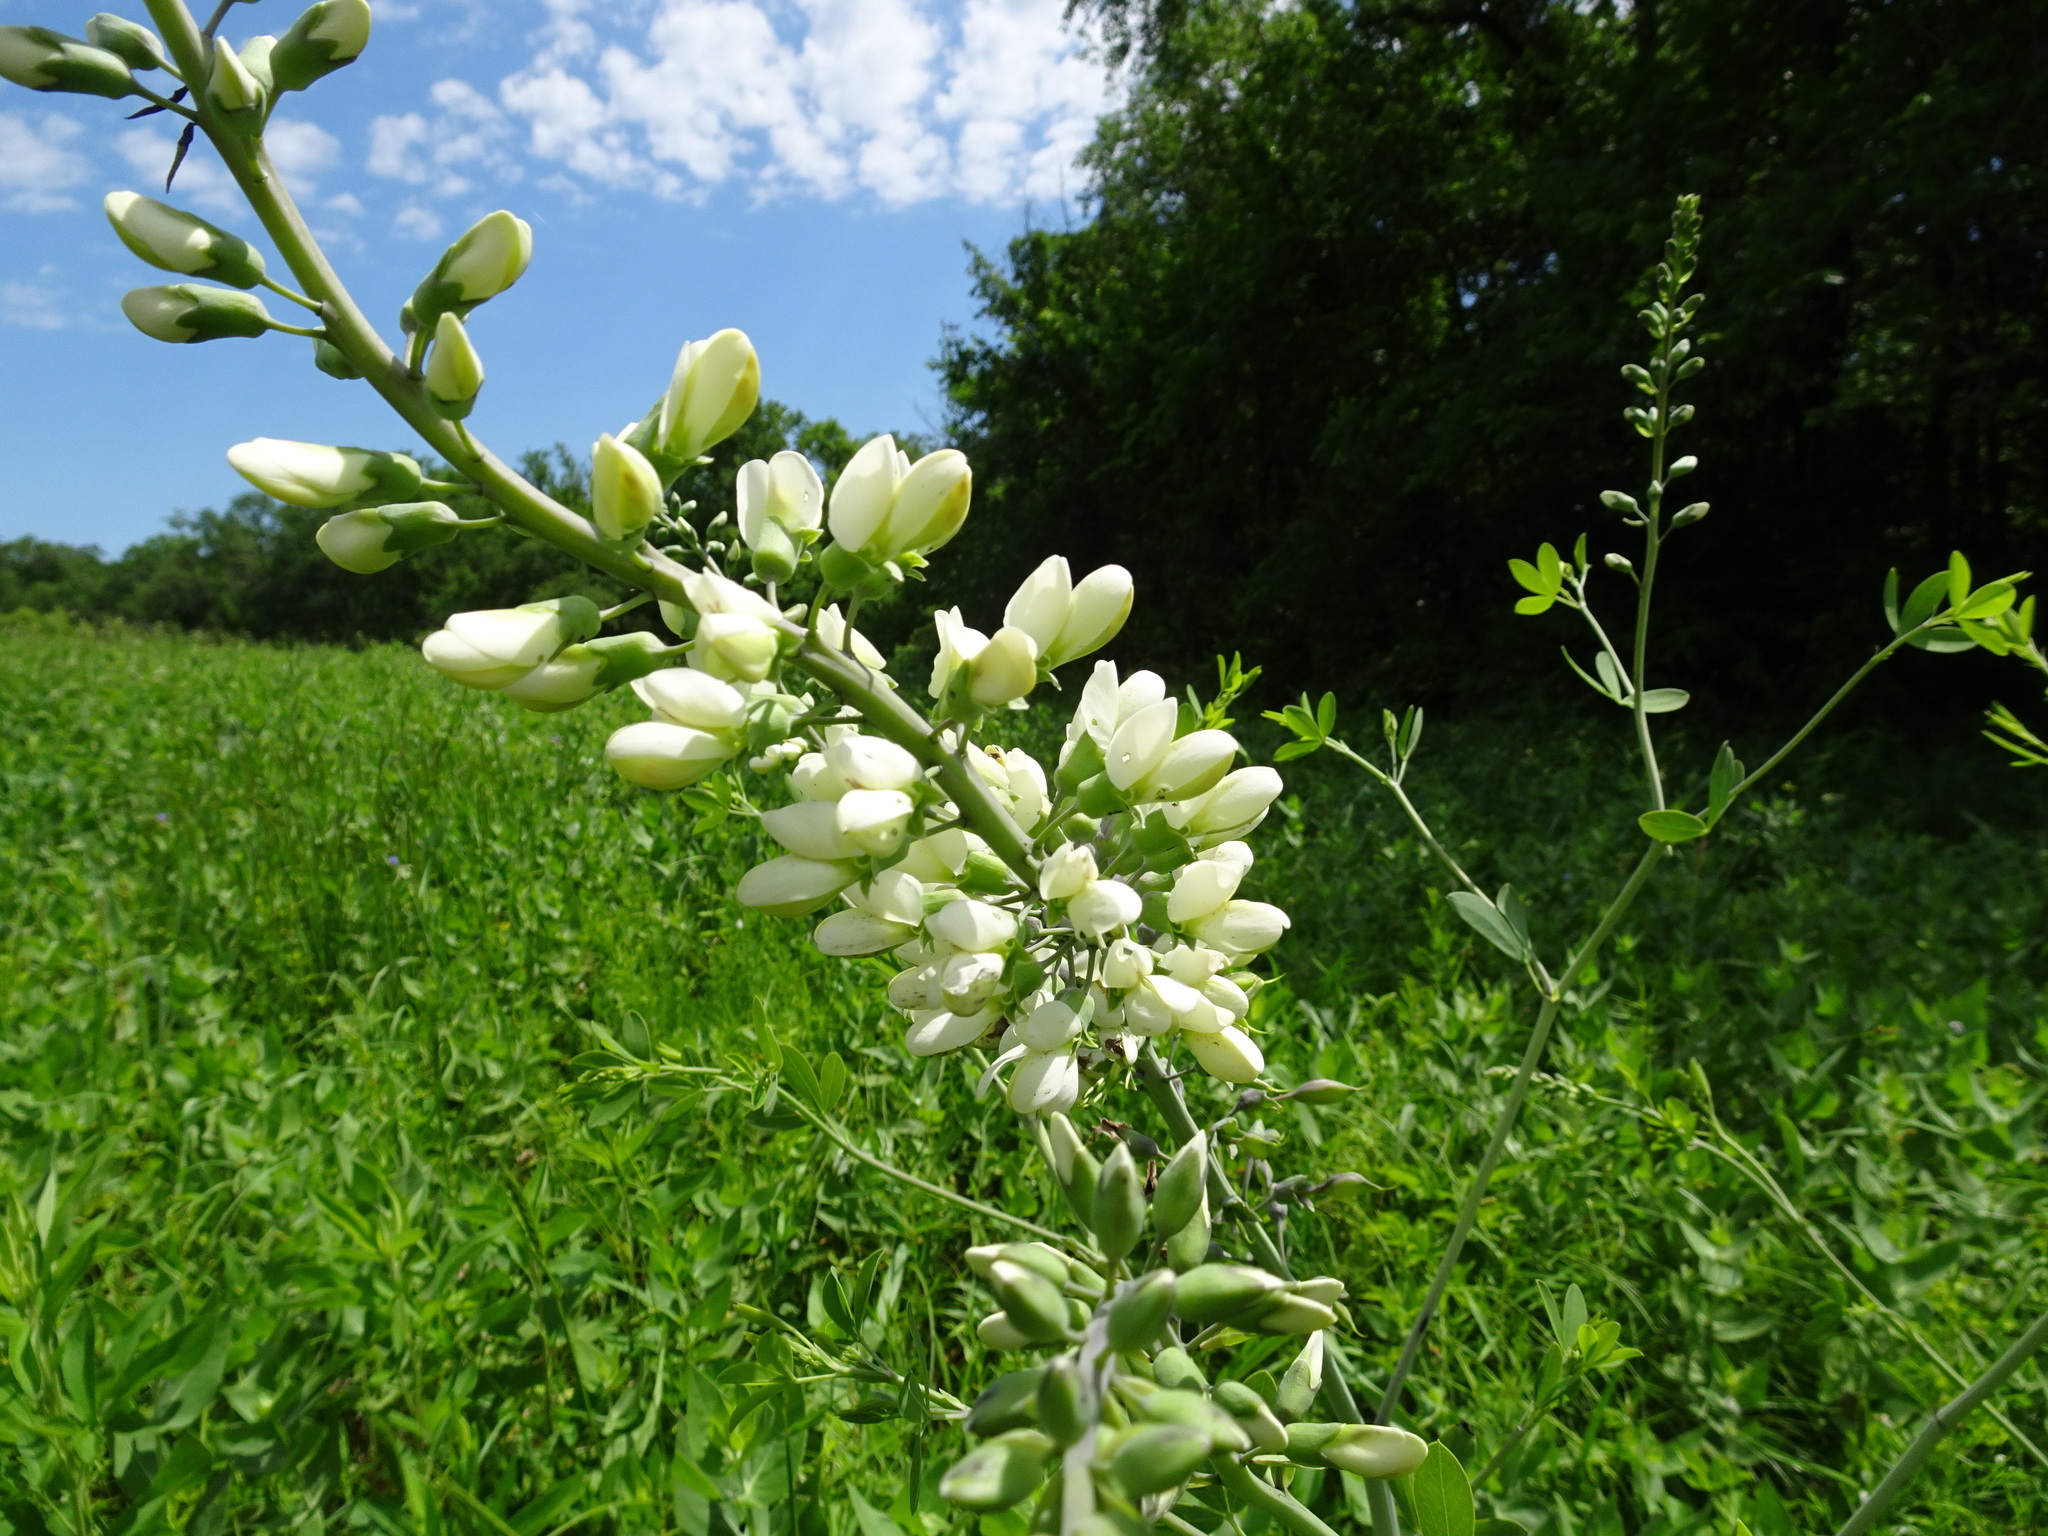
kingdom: Plantae
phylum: Tracheophyta
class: Magnoliopsida
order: Fabales
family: Fabaceae
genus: Baptisia
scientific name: Baptisia alba
